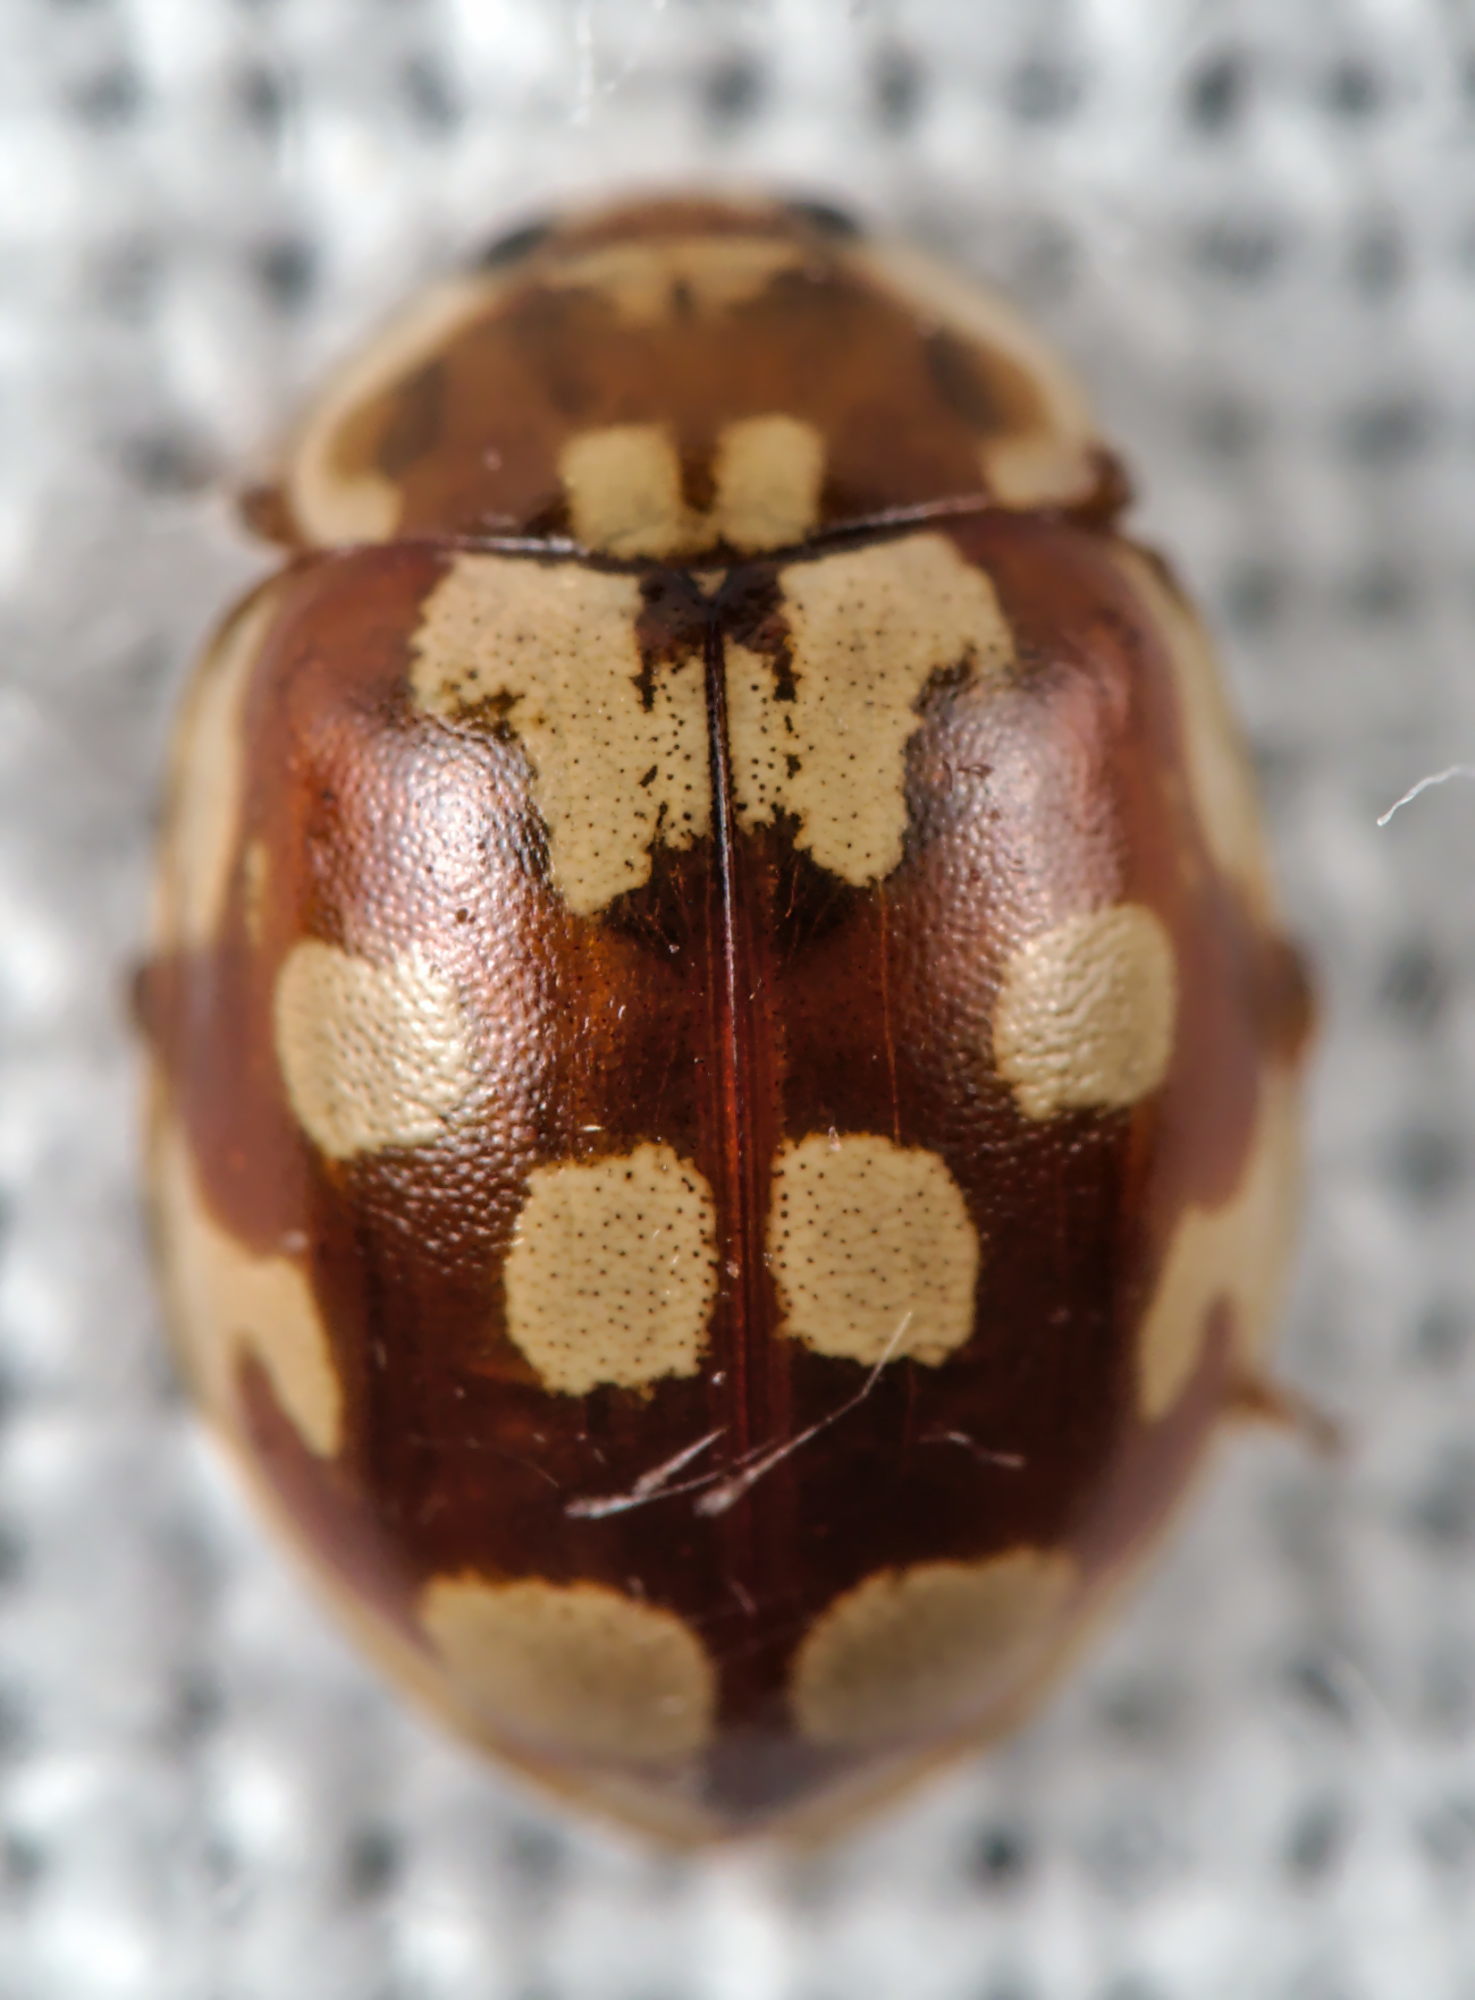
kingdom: Animalia
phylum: Arthropoda
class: Insecta
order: Coleoptera
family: Coccinellidae
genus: Myrrha
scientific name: Myrrha octodecimguttata
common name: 18-spot ladybird
